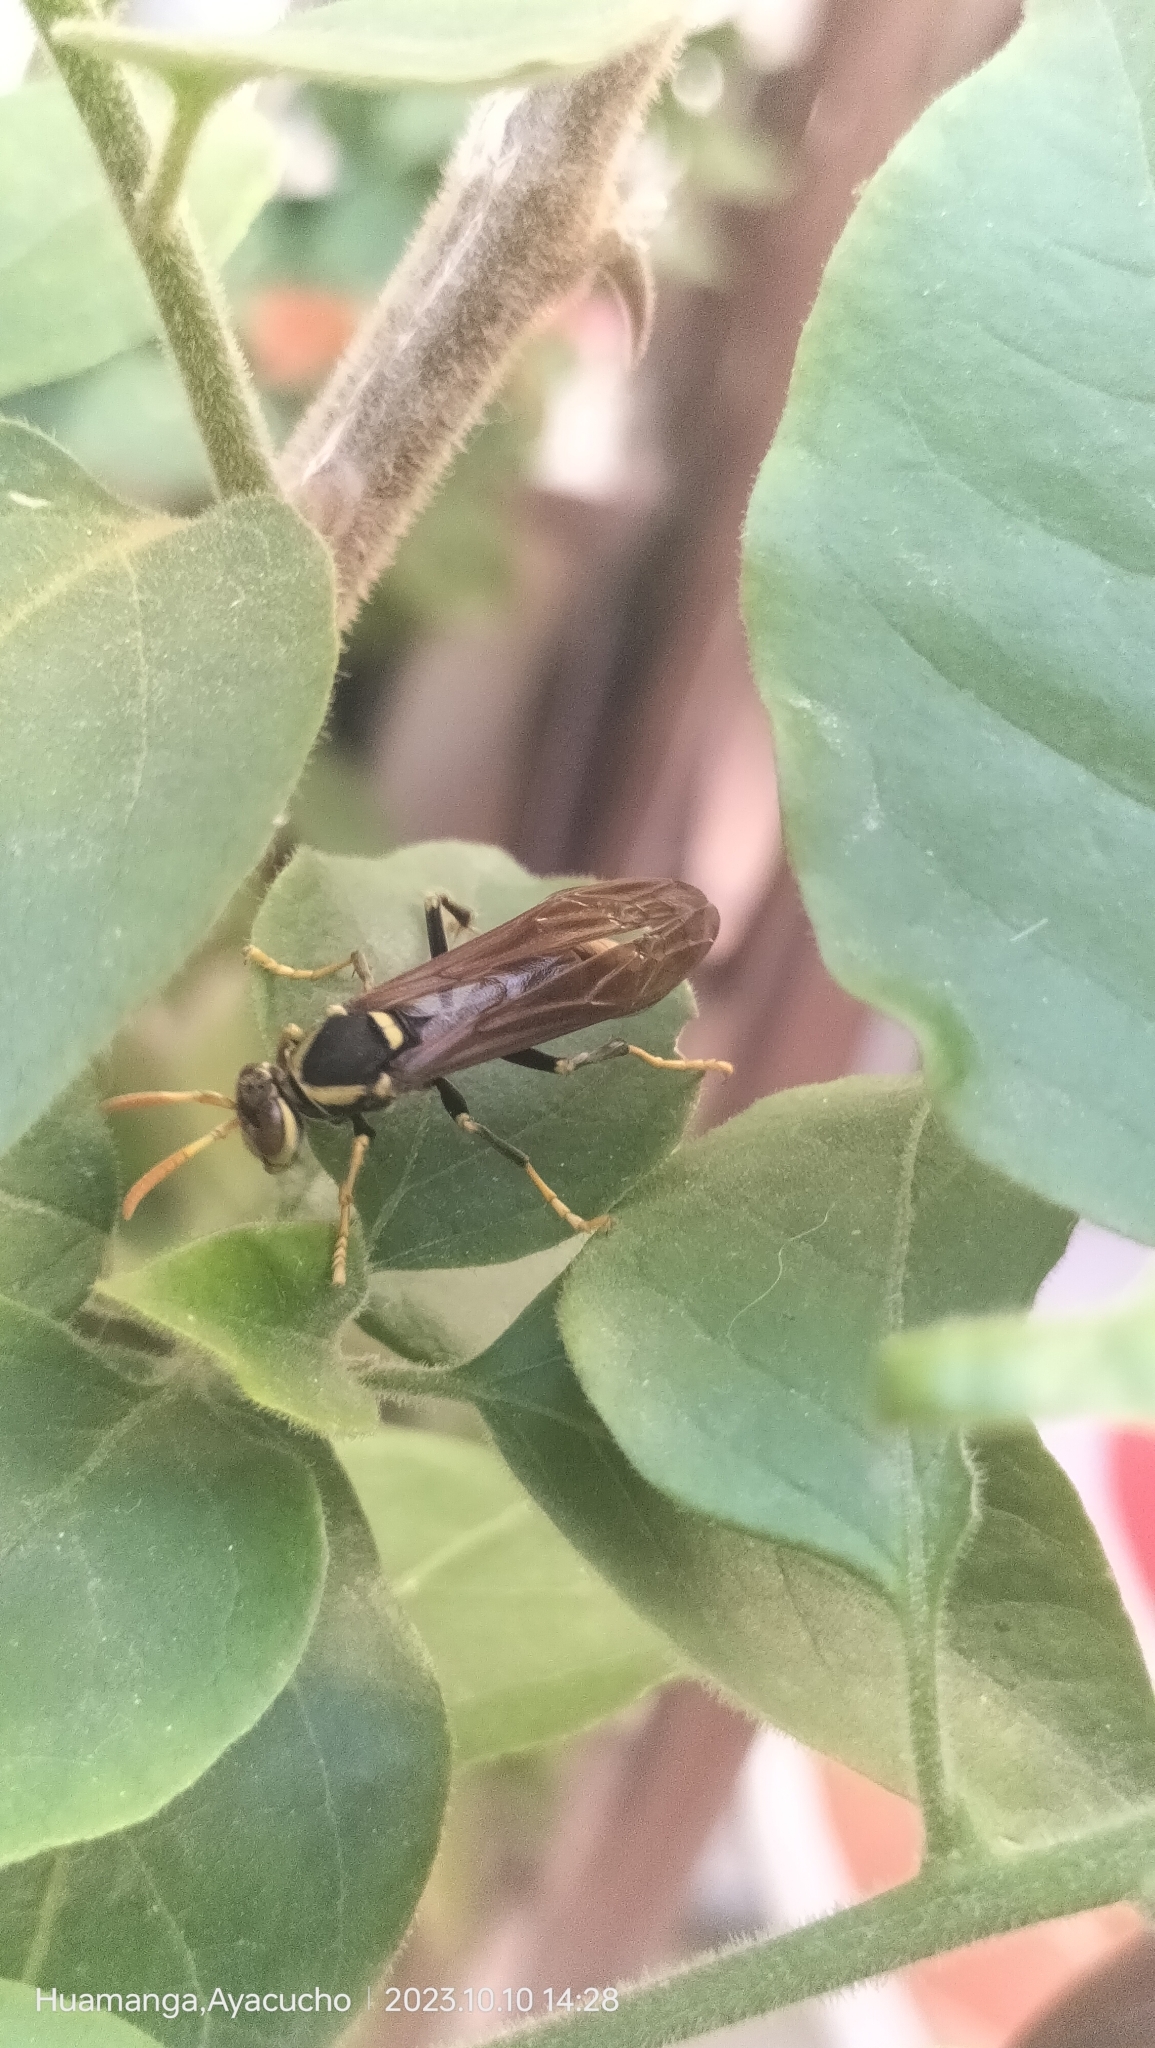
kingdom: Animalia
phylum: Arthropoda
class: Insecta
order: Hymenoptera
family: Eumenidae
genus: Polistes
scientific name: Polistes xanthogaster
